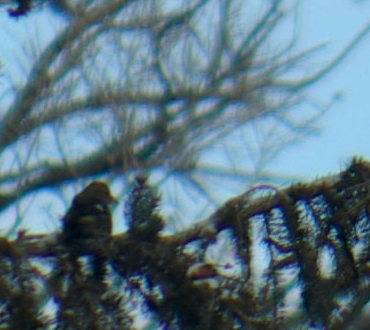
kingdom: Animalia
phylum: Chordata
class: Aves
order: Passeriformes
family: Fringillidae
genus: Loxia
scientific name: Loxia leucoptera
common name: Two-barred crossbill
